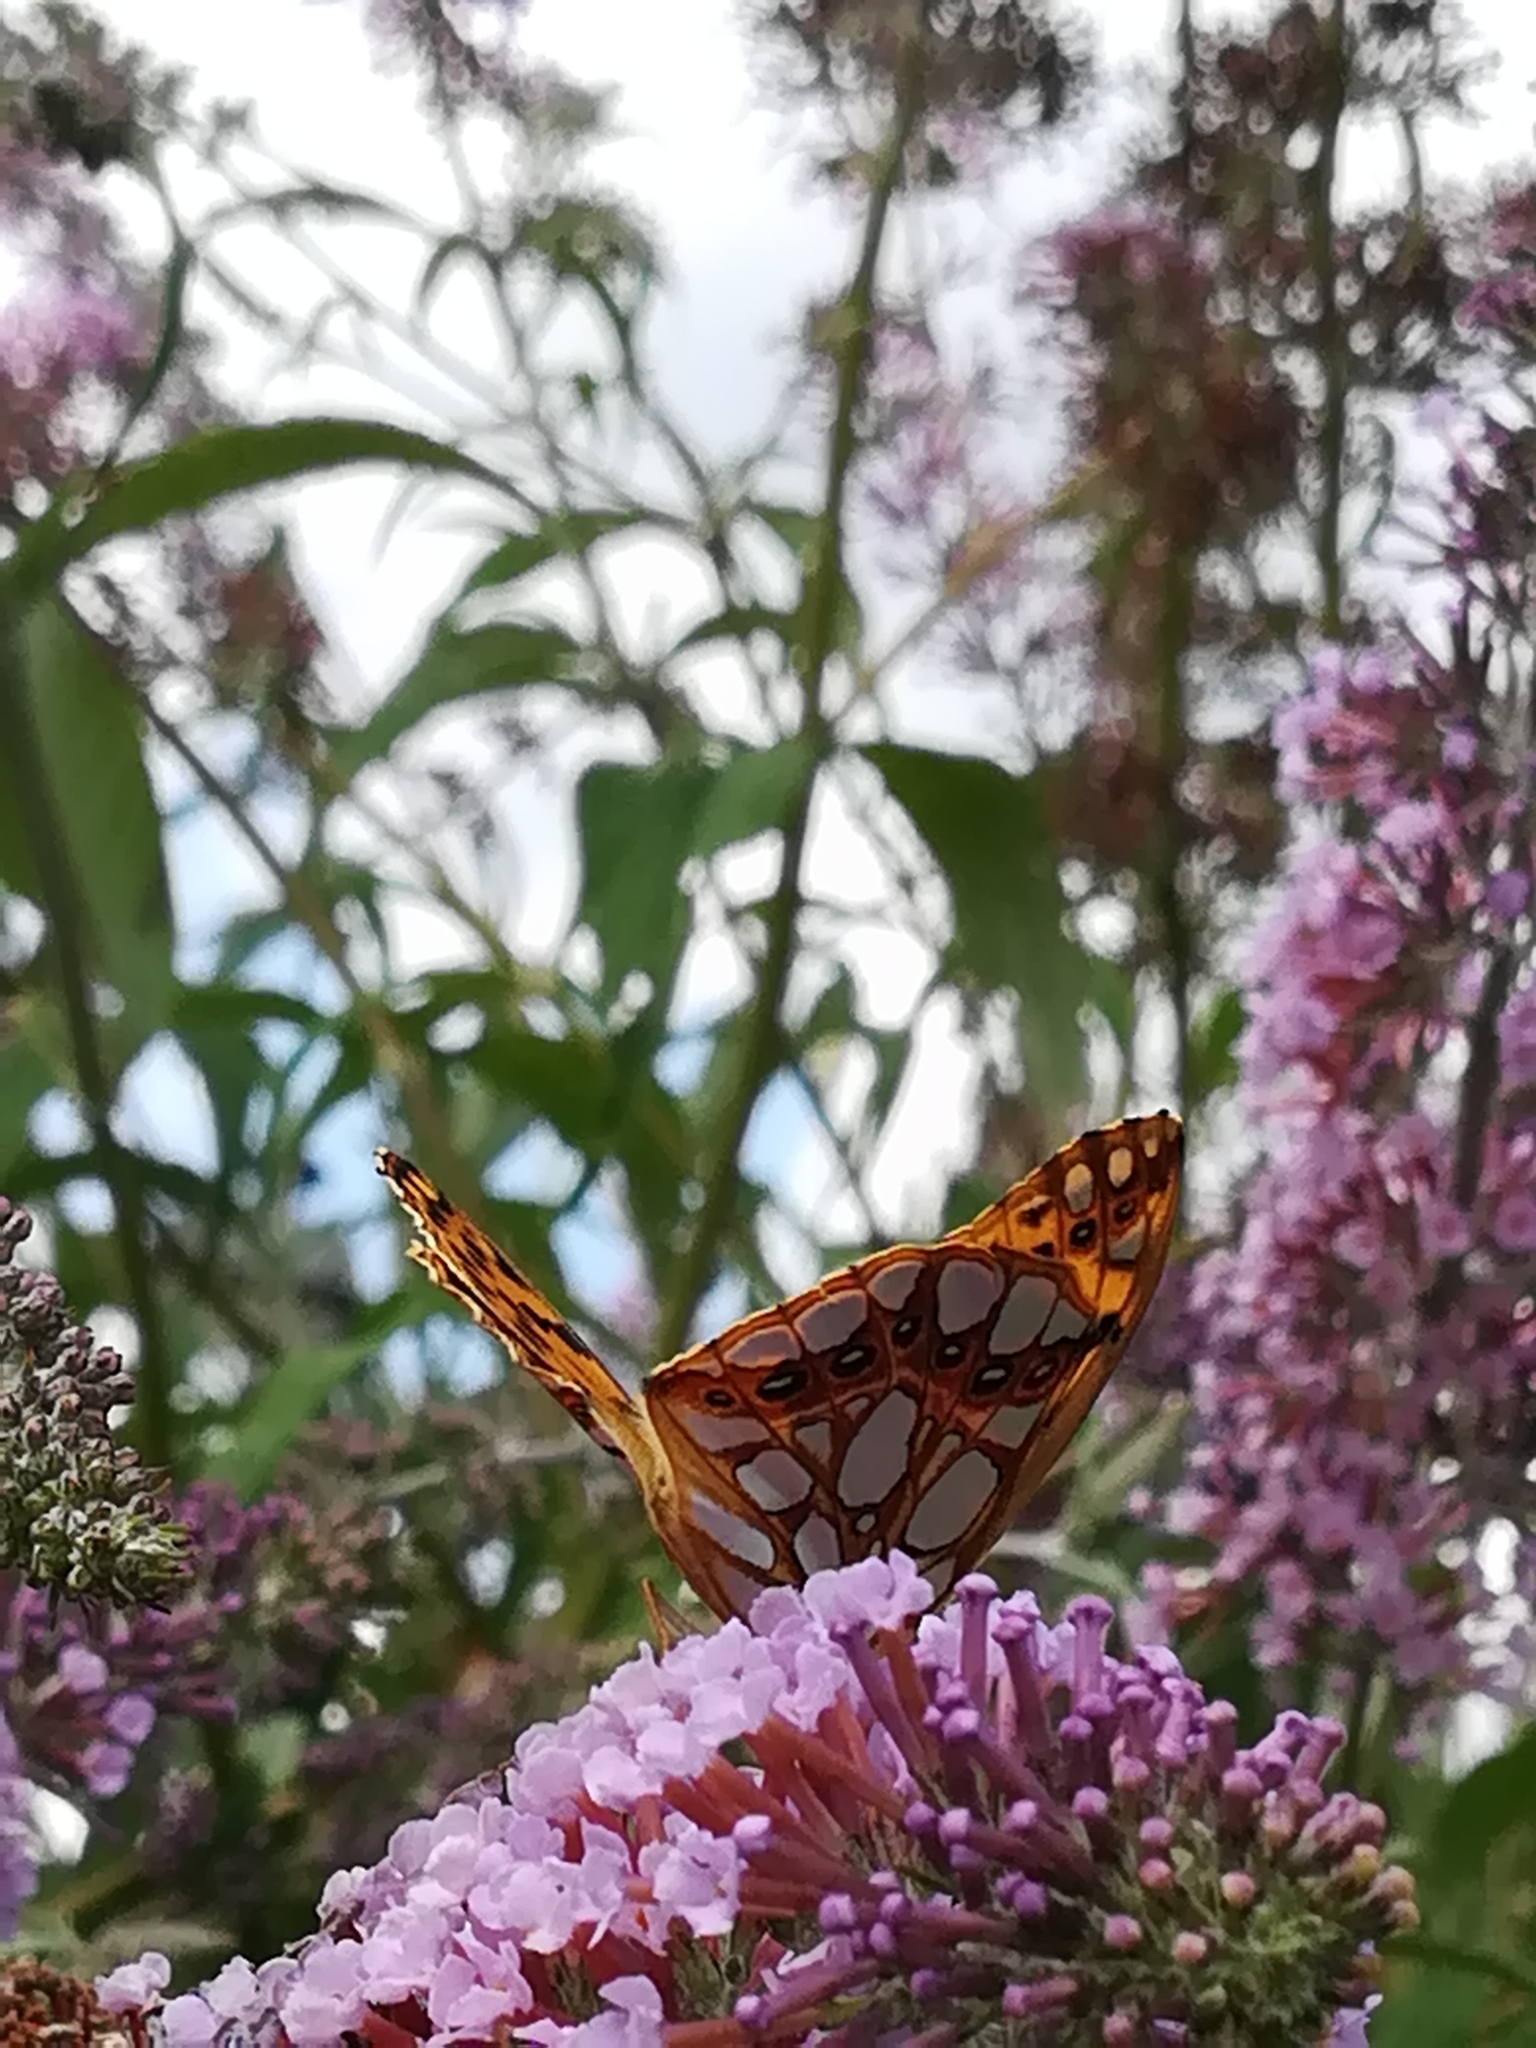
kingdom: Animalia
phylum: Arthropoda
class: Insecta
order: Lepidoptera
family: Nymphalidae
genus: Issoria
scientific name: Issoria lathonia
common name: Queen of spain fritillary
